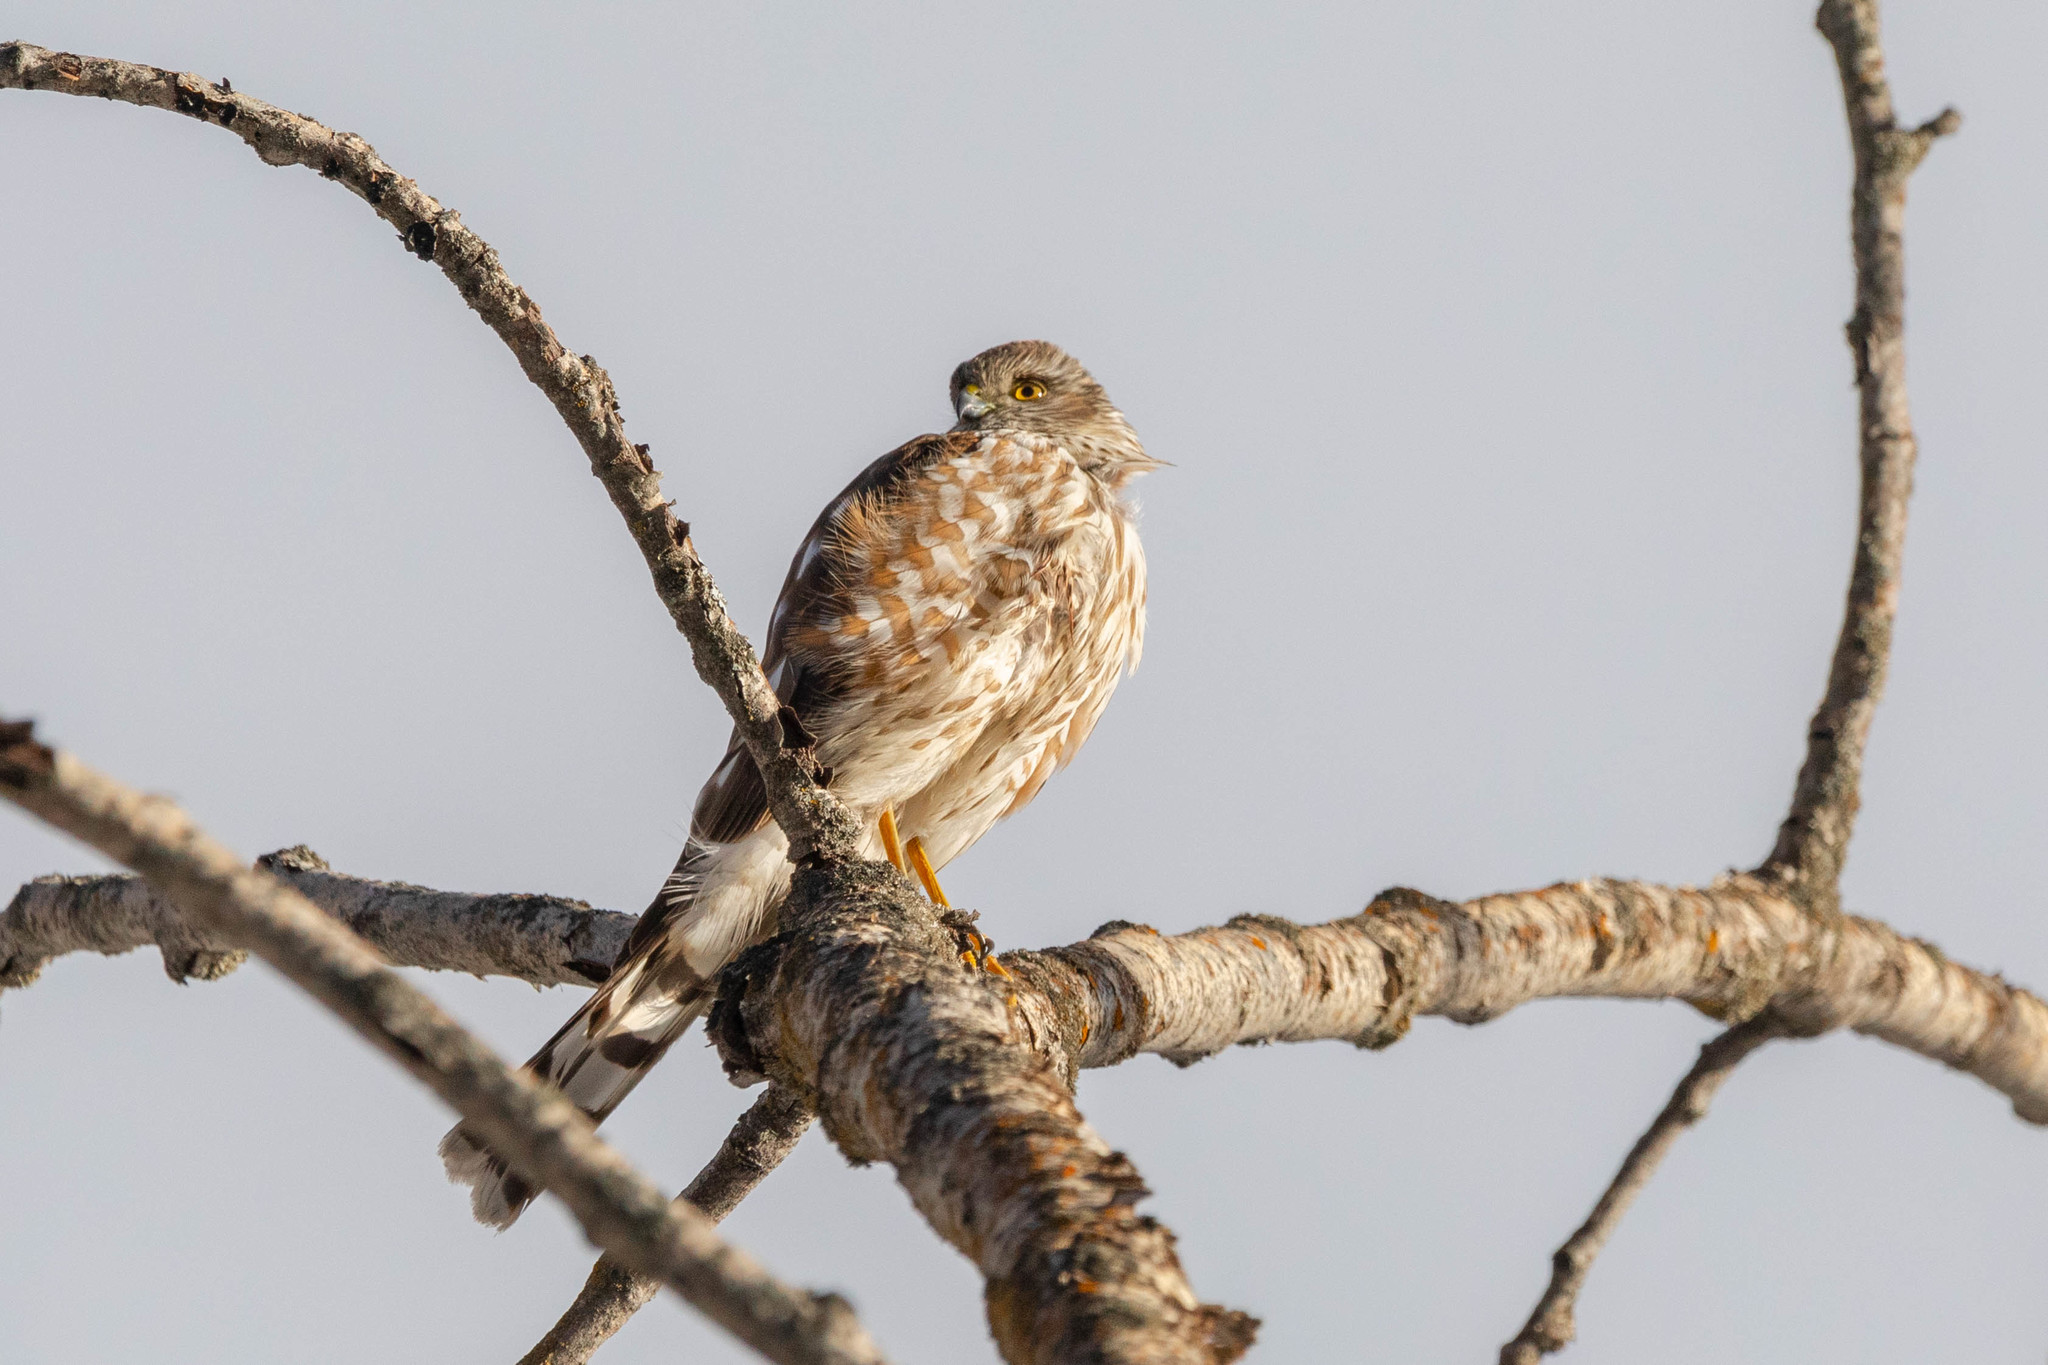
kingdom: Animalia
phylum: Chordata
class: Aves
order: Accipitriformes
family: Accipitridae
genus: Accipiter
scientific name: Accipiter striatus
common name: Sharp-shinned hawk
